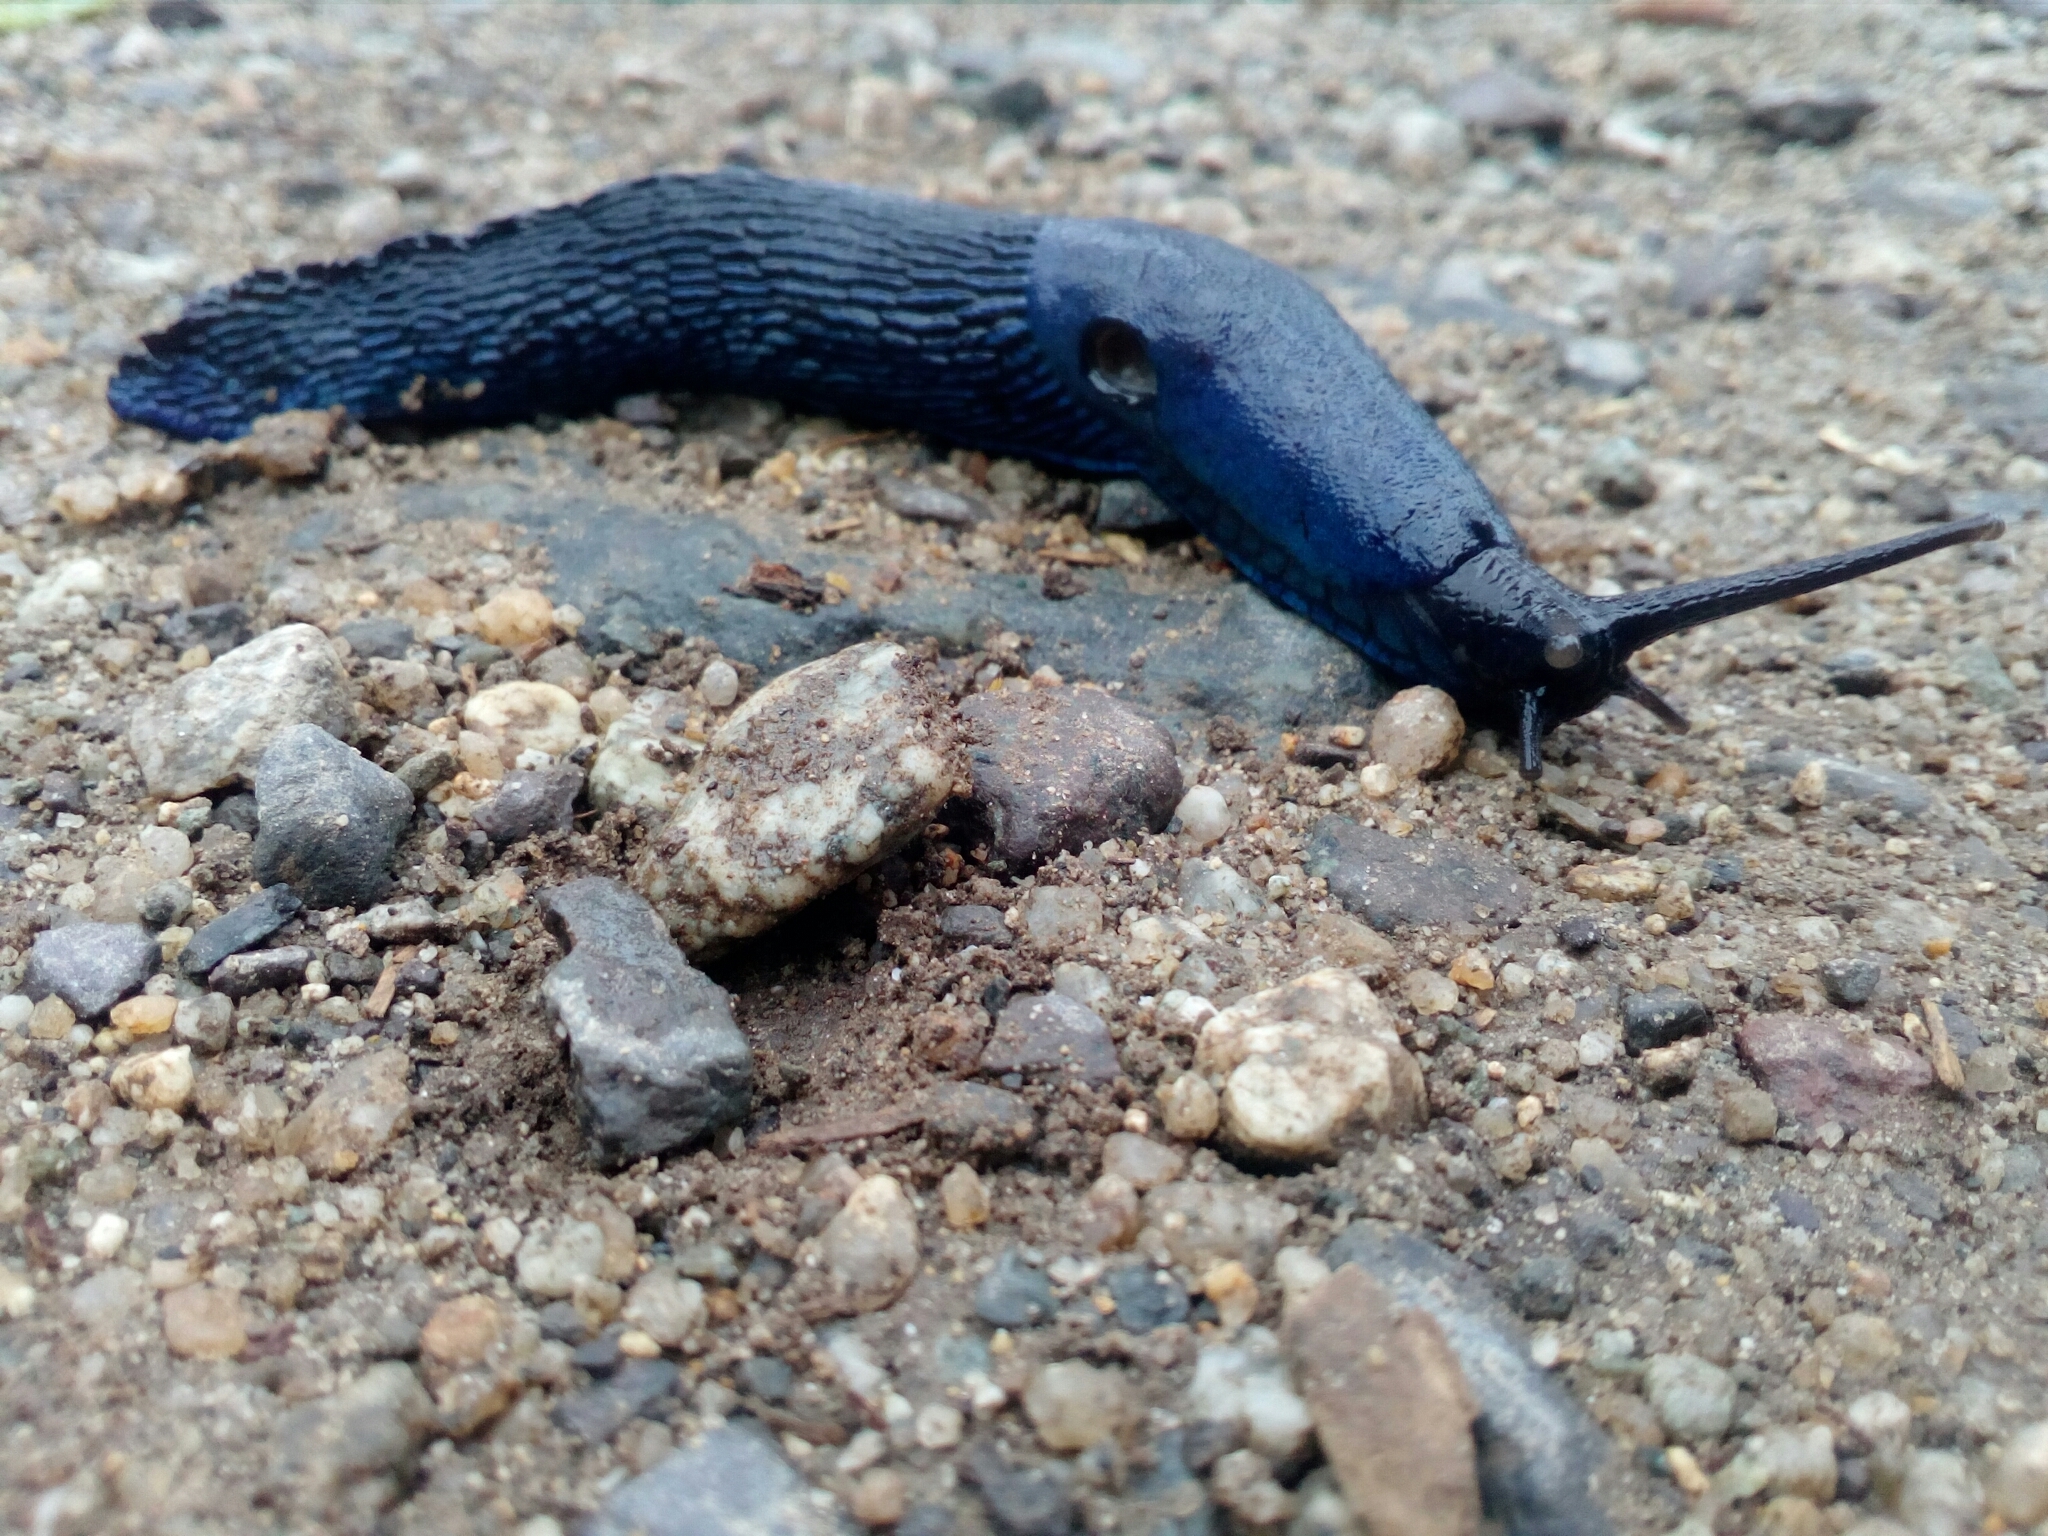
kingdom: Animalia
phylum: Mollusca
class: Gastropoda
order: Stylommatophora
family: Limacidae
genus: Bielzia
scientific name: Bielzia coerulans
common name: Carpathian blue slug
